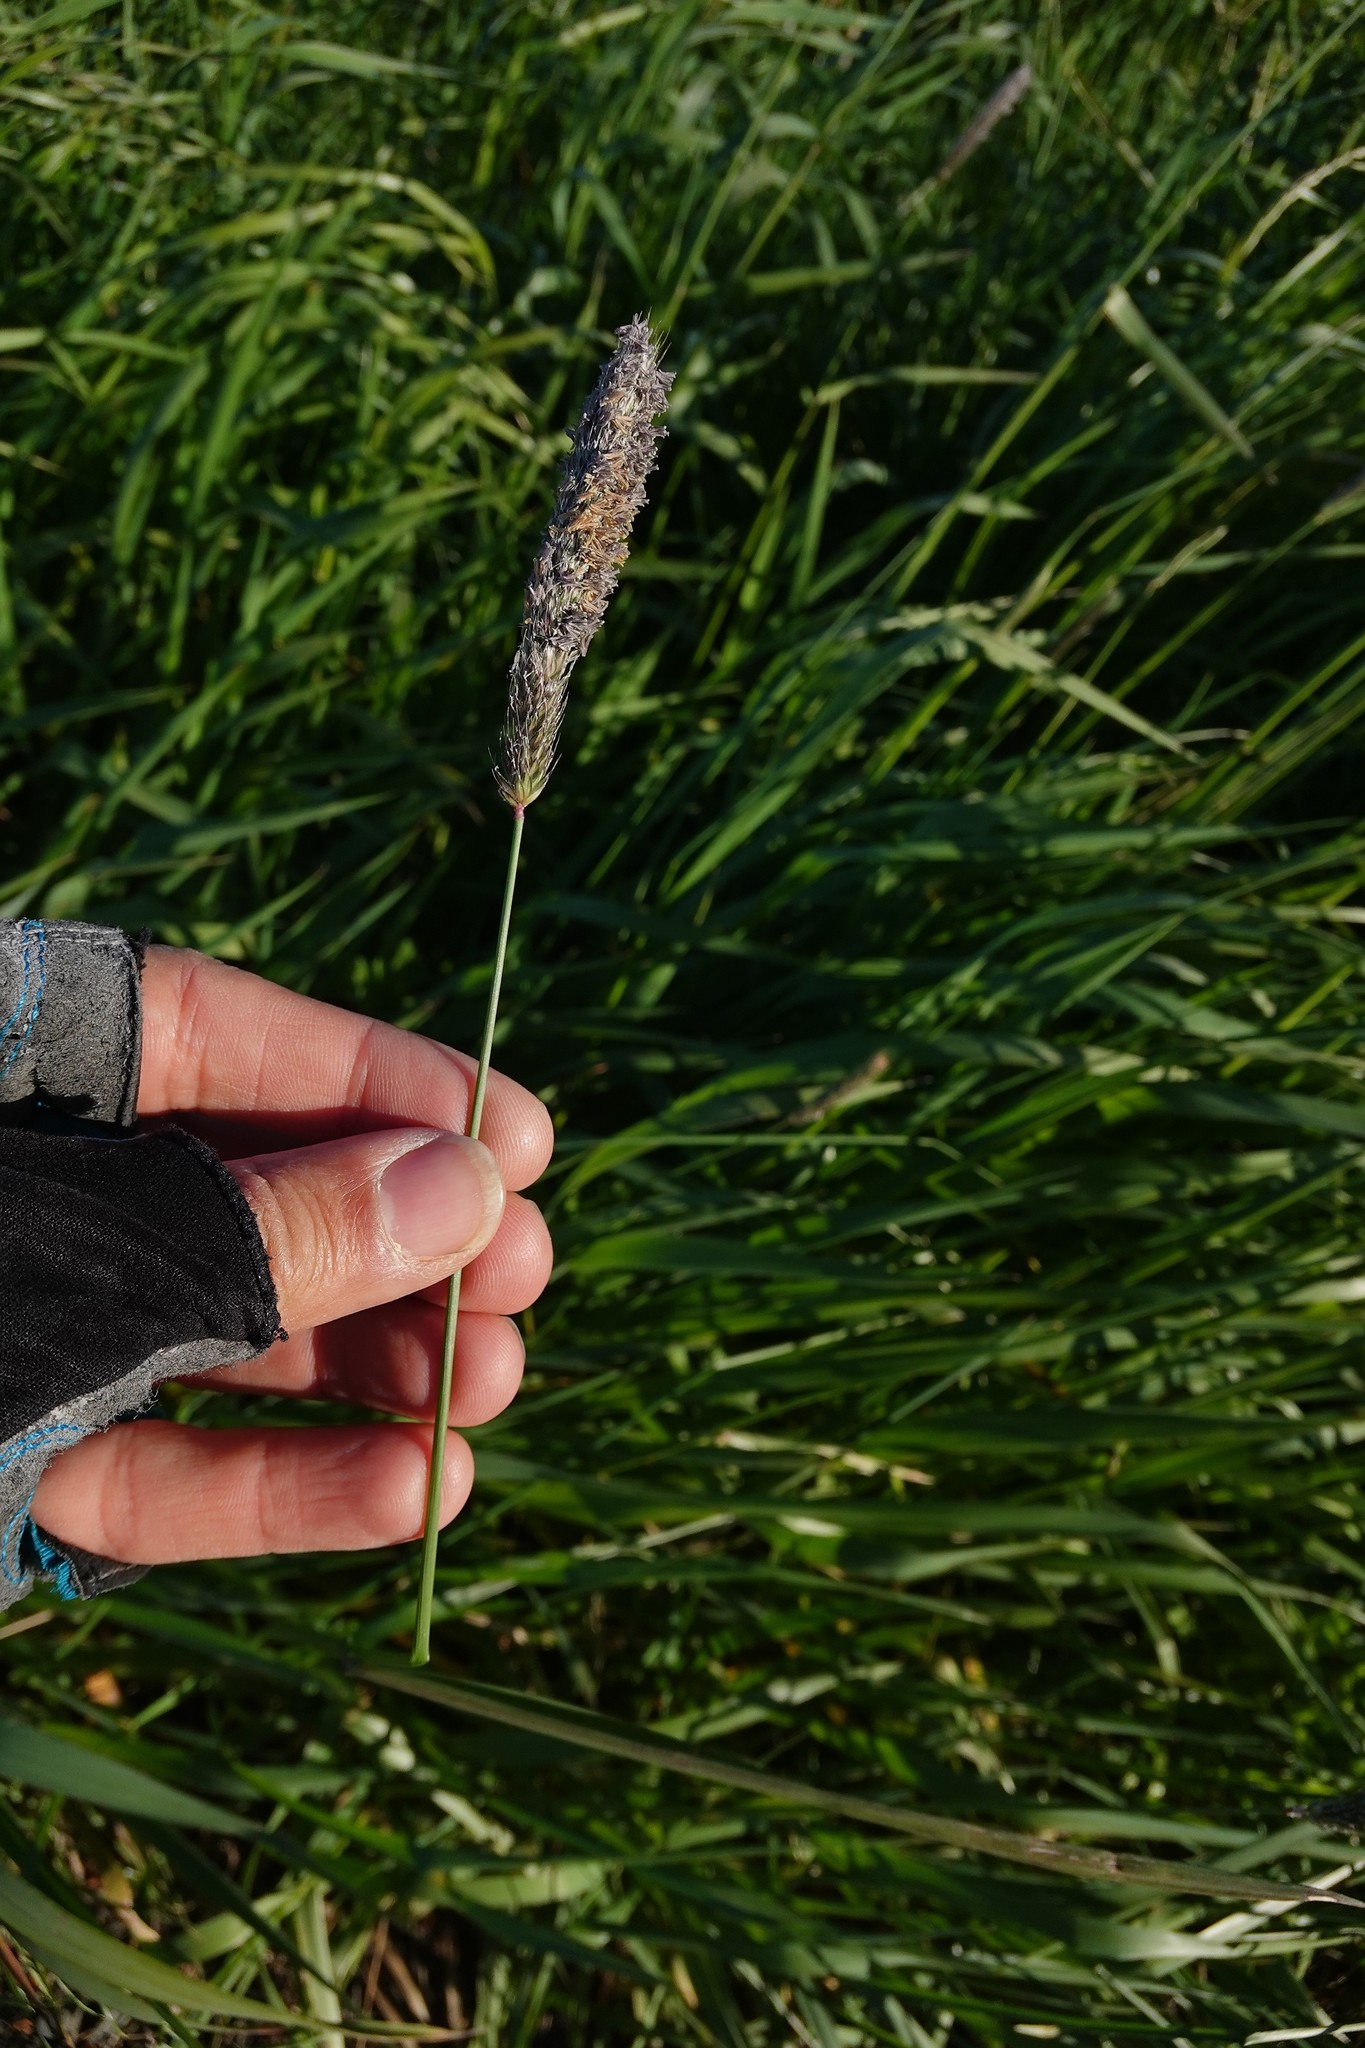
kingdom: Plantae
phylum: Tracheophyta
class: Liliopsida
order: Poales
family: Poaceae
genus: Phleum
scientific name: Phleum pratense
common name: Timothy grass
